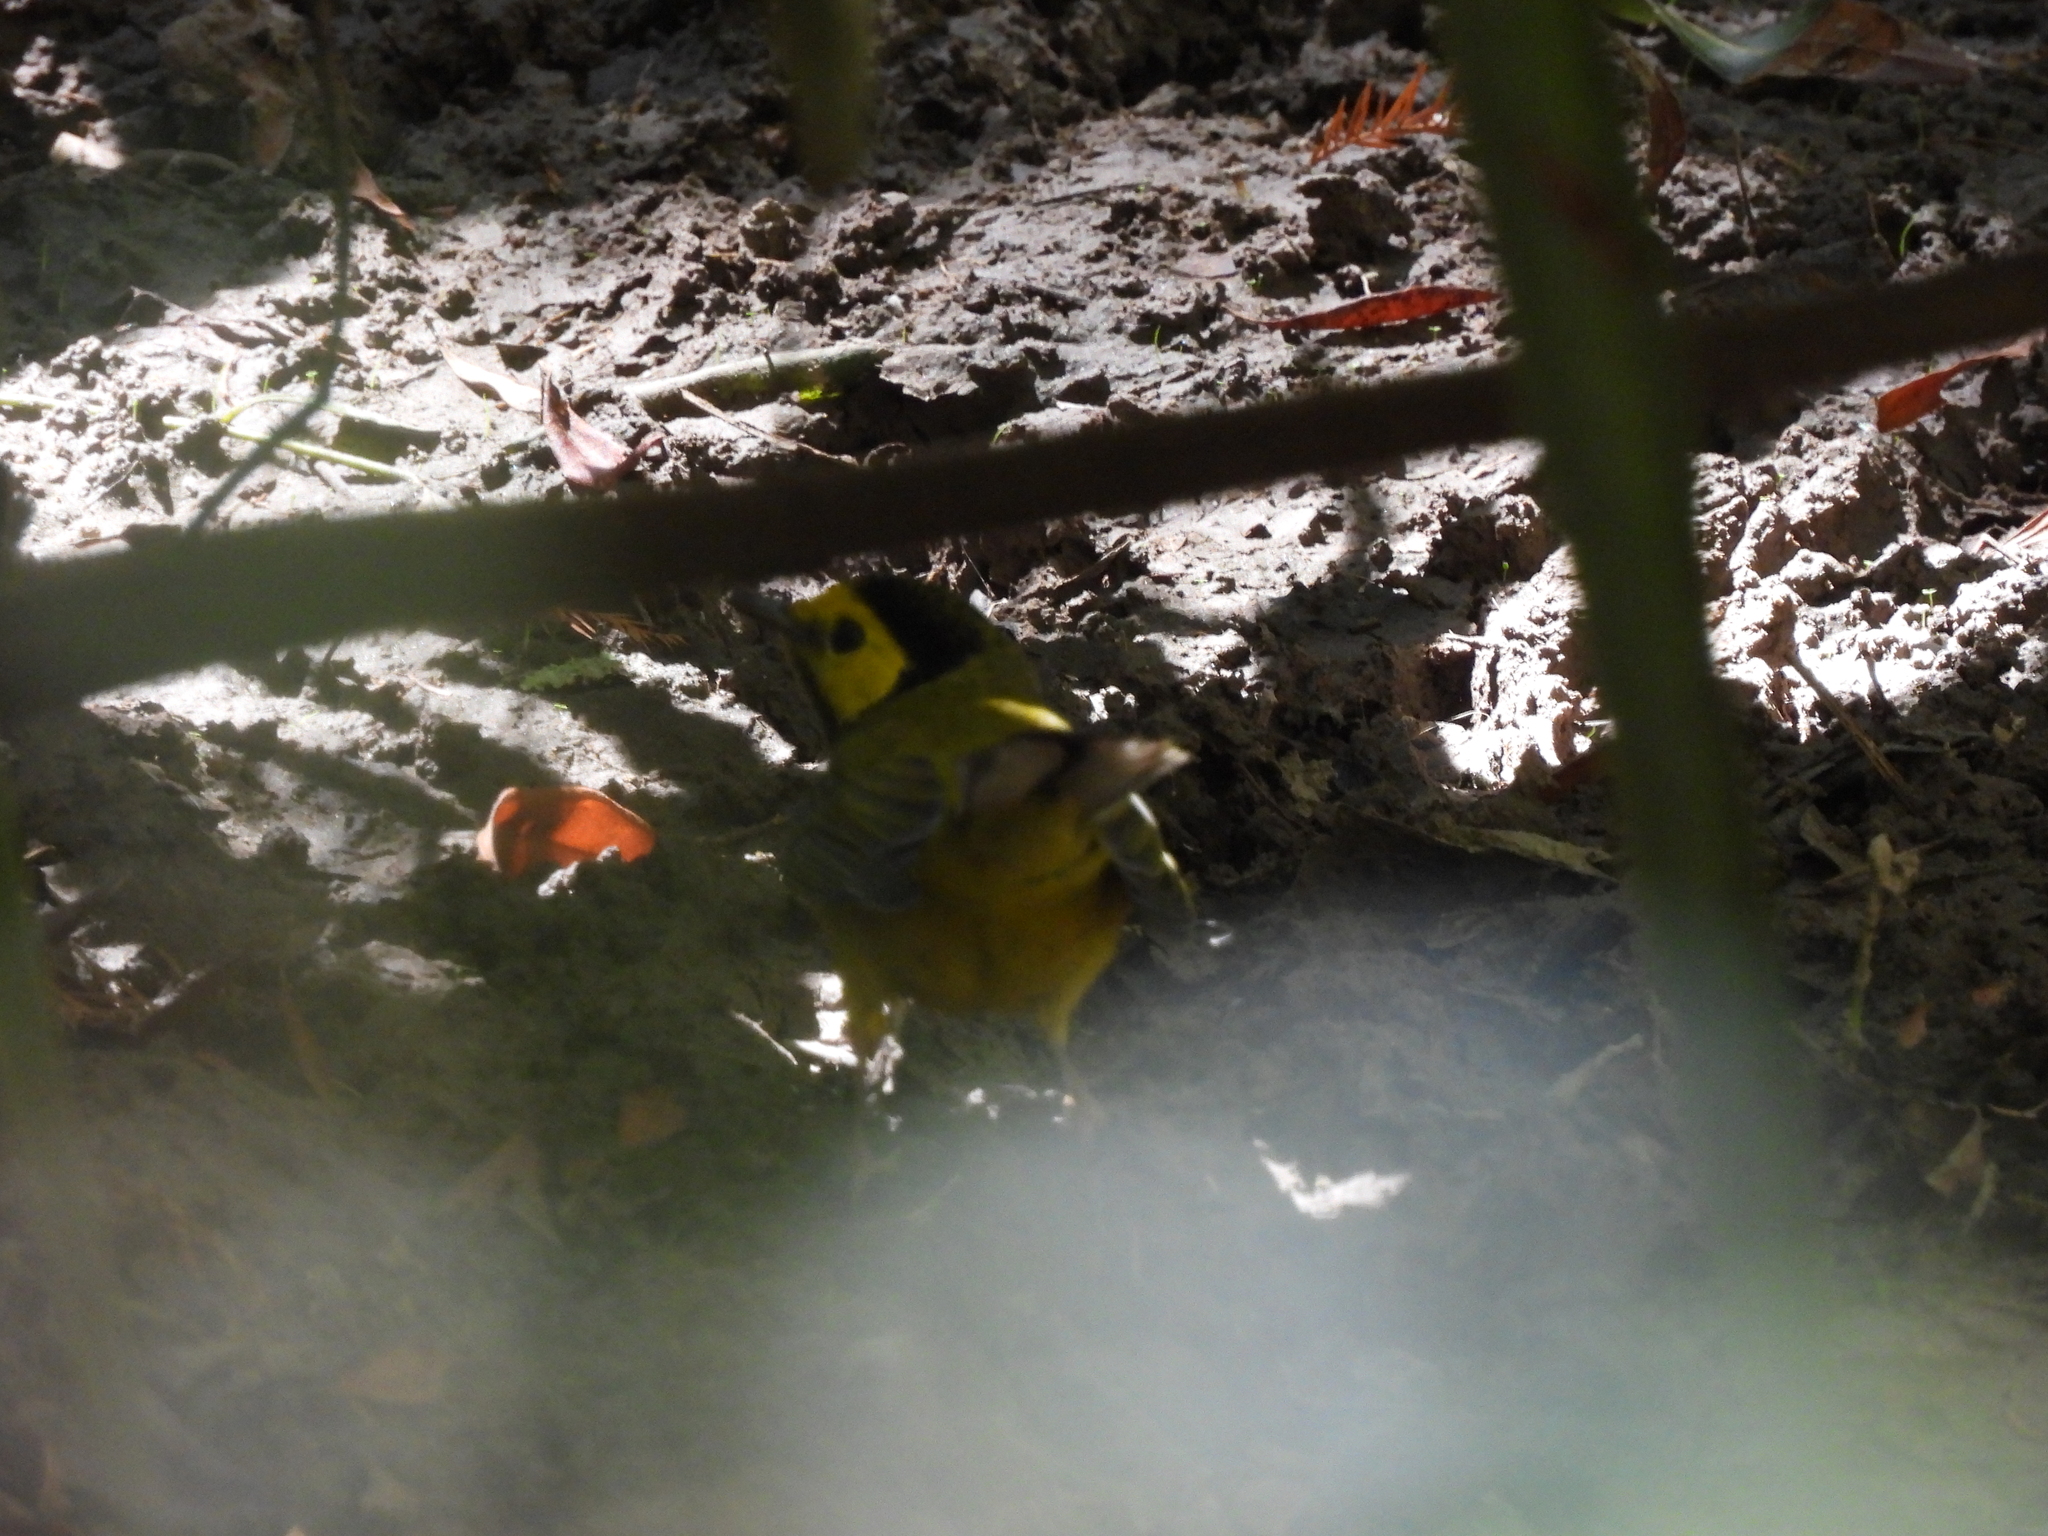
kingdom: Animalia
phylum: Chordata
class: Aves
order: Passeriformes
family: Parulidae
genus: Setophaga
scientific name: Setophaga citrina
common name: Hooded warbler
